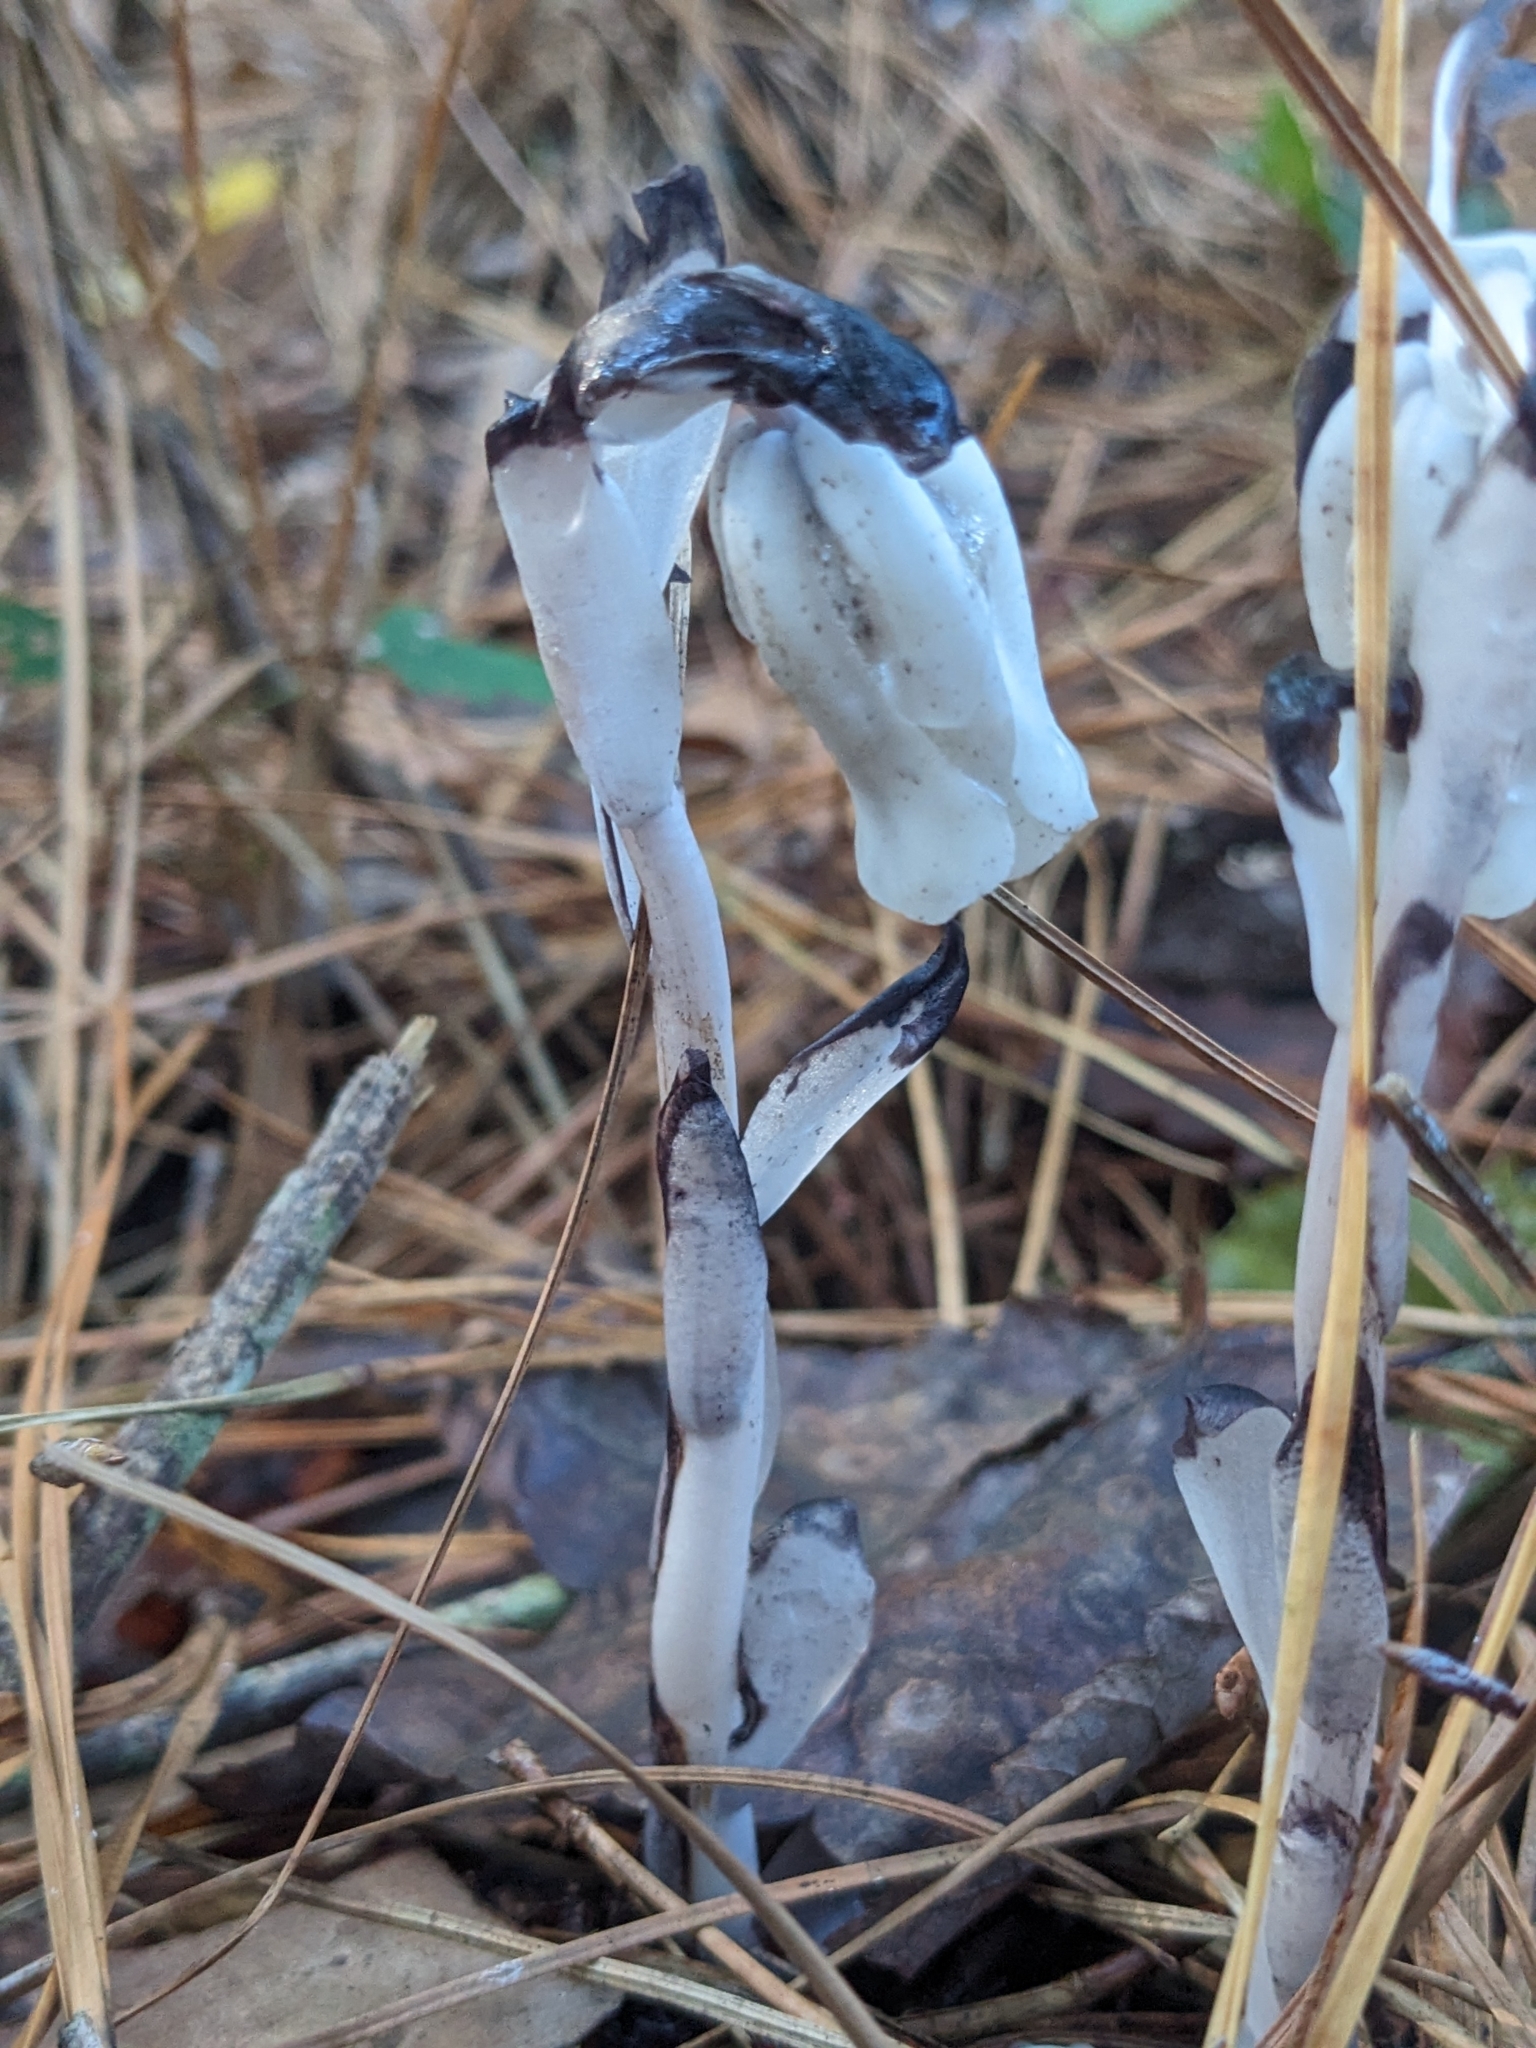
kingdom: Plantae
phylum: Tracheophyta
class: Magnoliopsida
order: Ericales
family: Ericaceae
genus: Monotropa
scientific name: Monotropa uniflora
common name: Convulsion root
